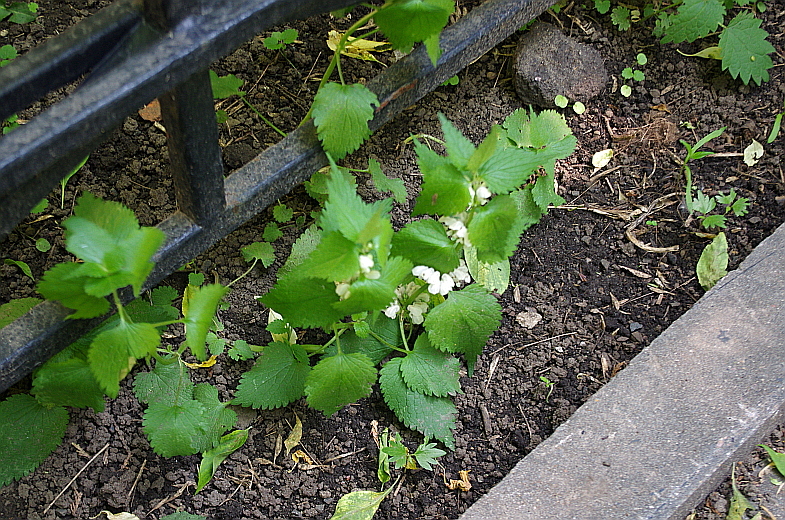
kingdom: Plantae
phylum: Tracheophyta
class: Magnoliopsida
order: Lamiales
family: Lamiaceae
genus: Lamium
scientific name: Lamium album
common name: White dead-nettle
